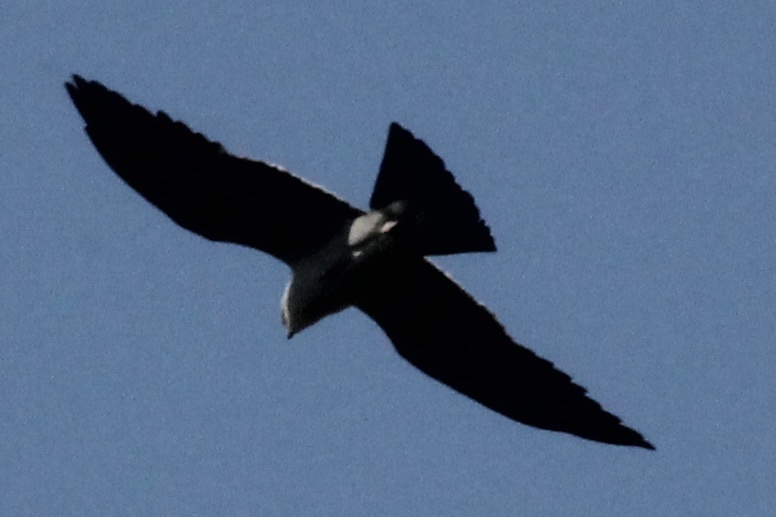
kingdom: Animalia
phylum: Chordata
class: Aves
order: Accipitriformes
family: Accipitridae
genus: Ictinia
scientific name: Ictinia mississippiensis
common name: Mississippi kite
